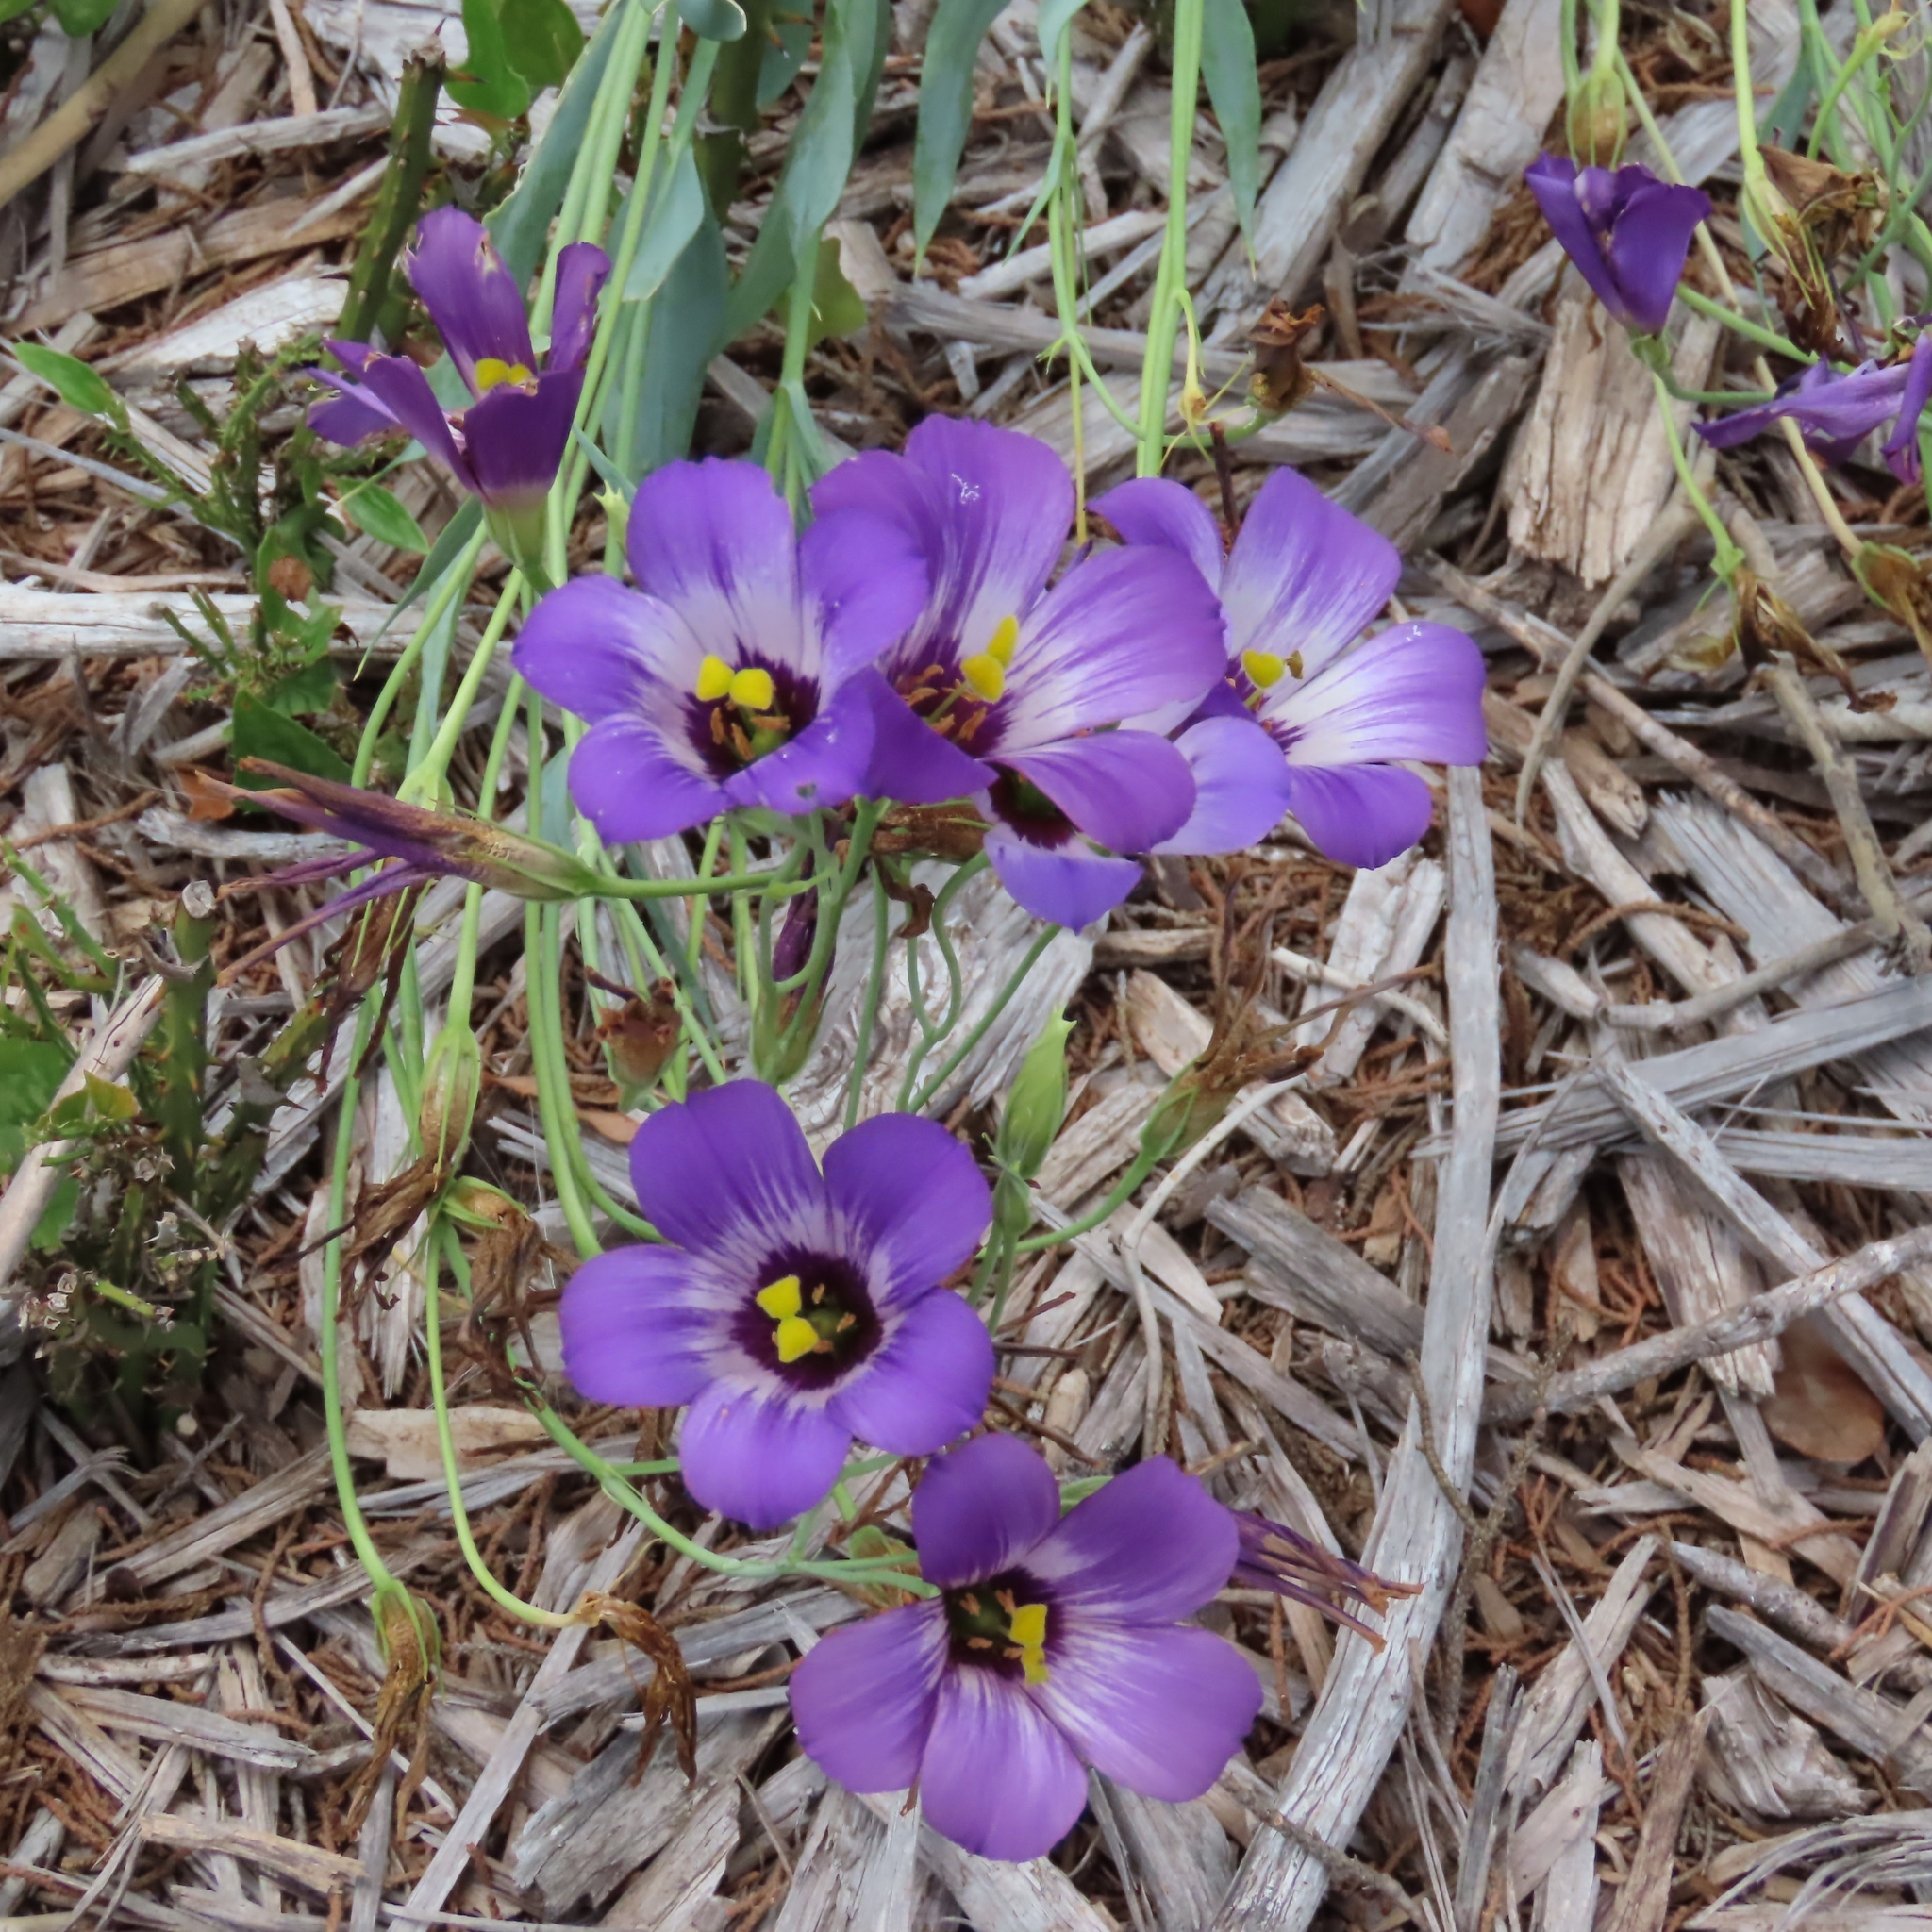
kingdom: Plantae
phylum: Tracheophyta
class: Magnoliopsida
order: Gentianales
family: Gentianaceae
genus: Eustoma
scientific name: Eustoma russellianum
